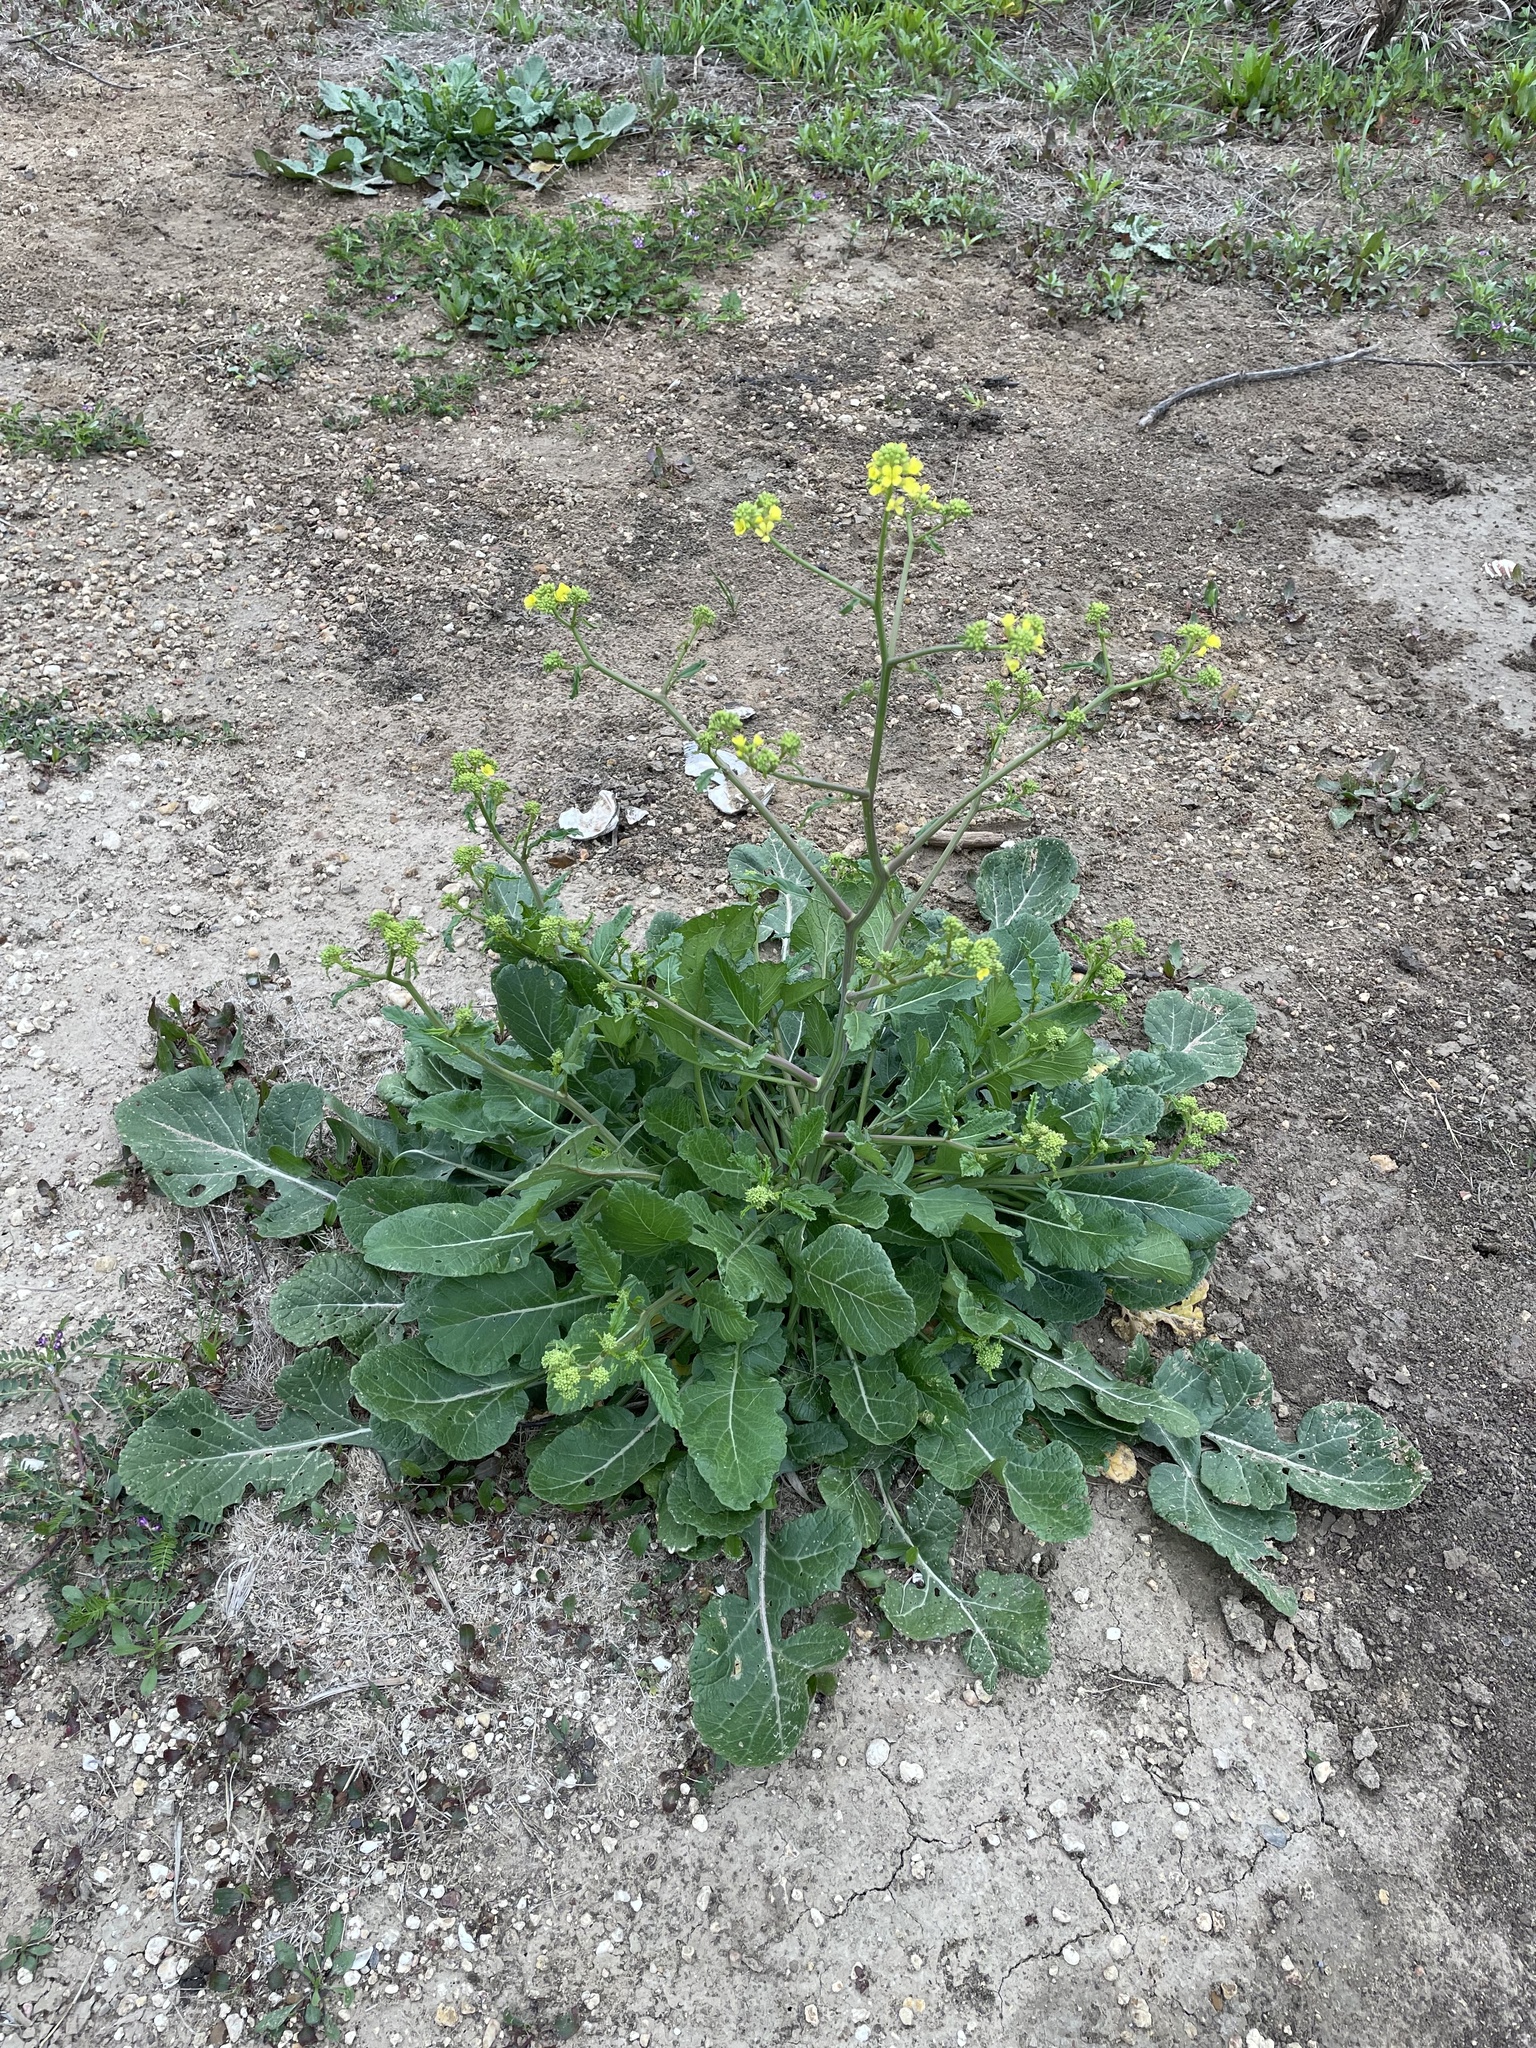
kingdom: Plantae
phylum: Tracheophyta
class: Magnoliopsida
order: Brassicales
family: Brassicaceae
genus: Rapistrum
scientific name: Rapistrum rugosum
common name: Annual bastardcabbage
